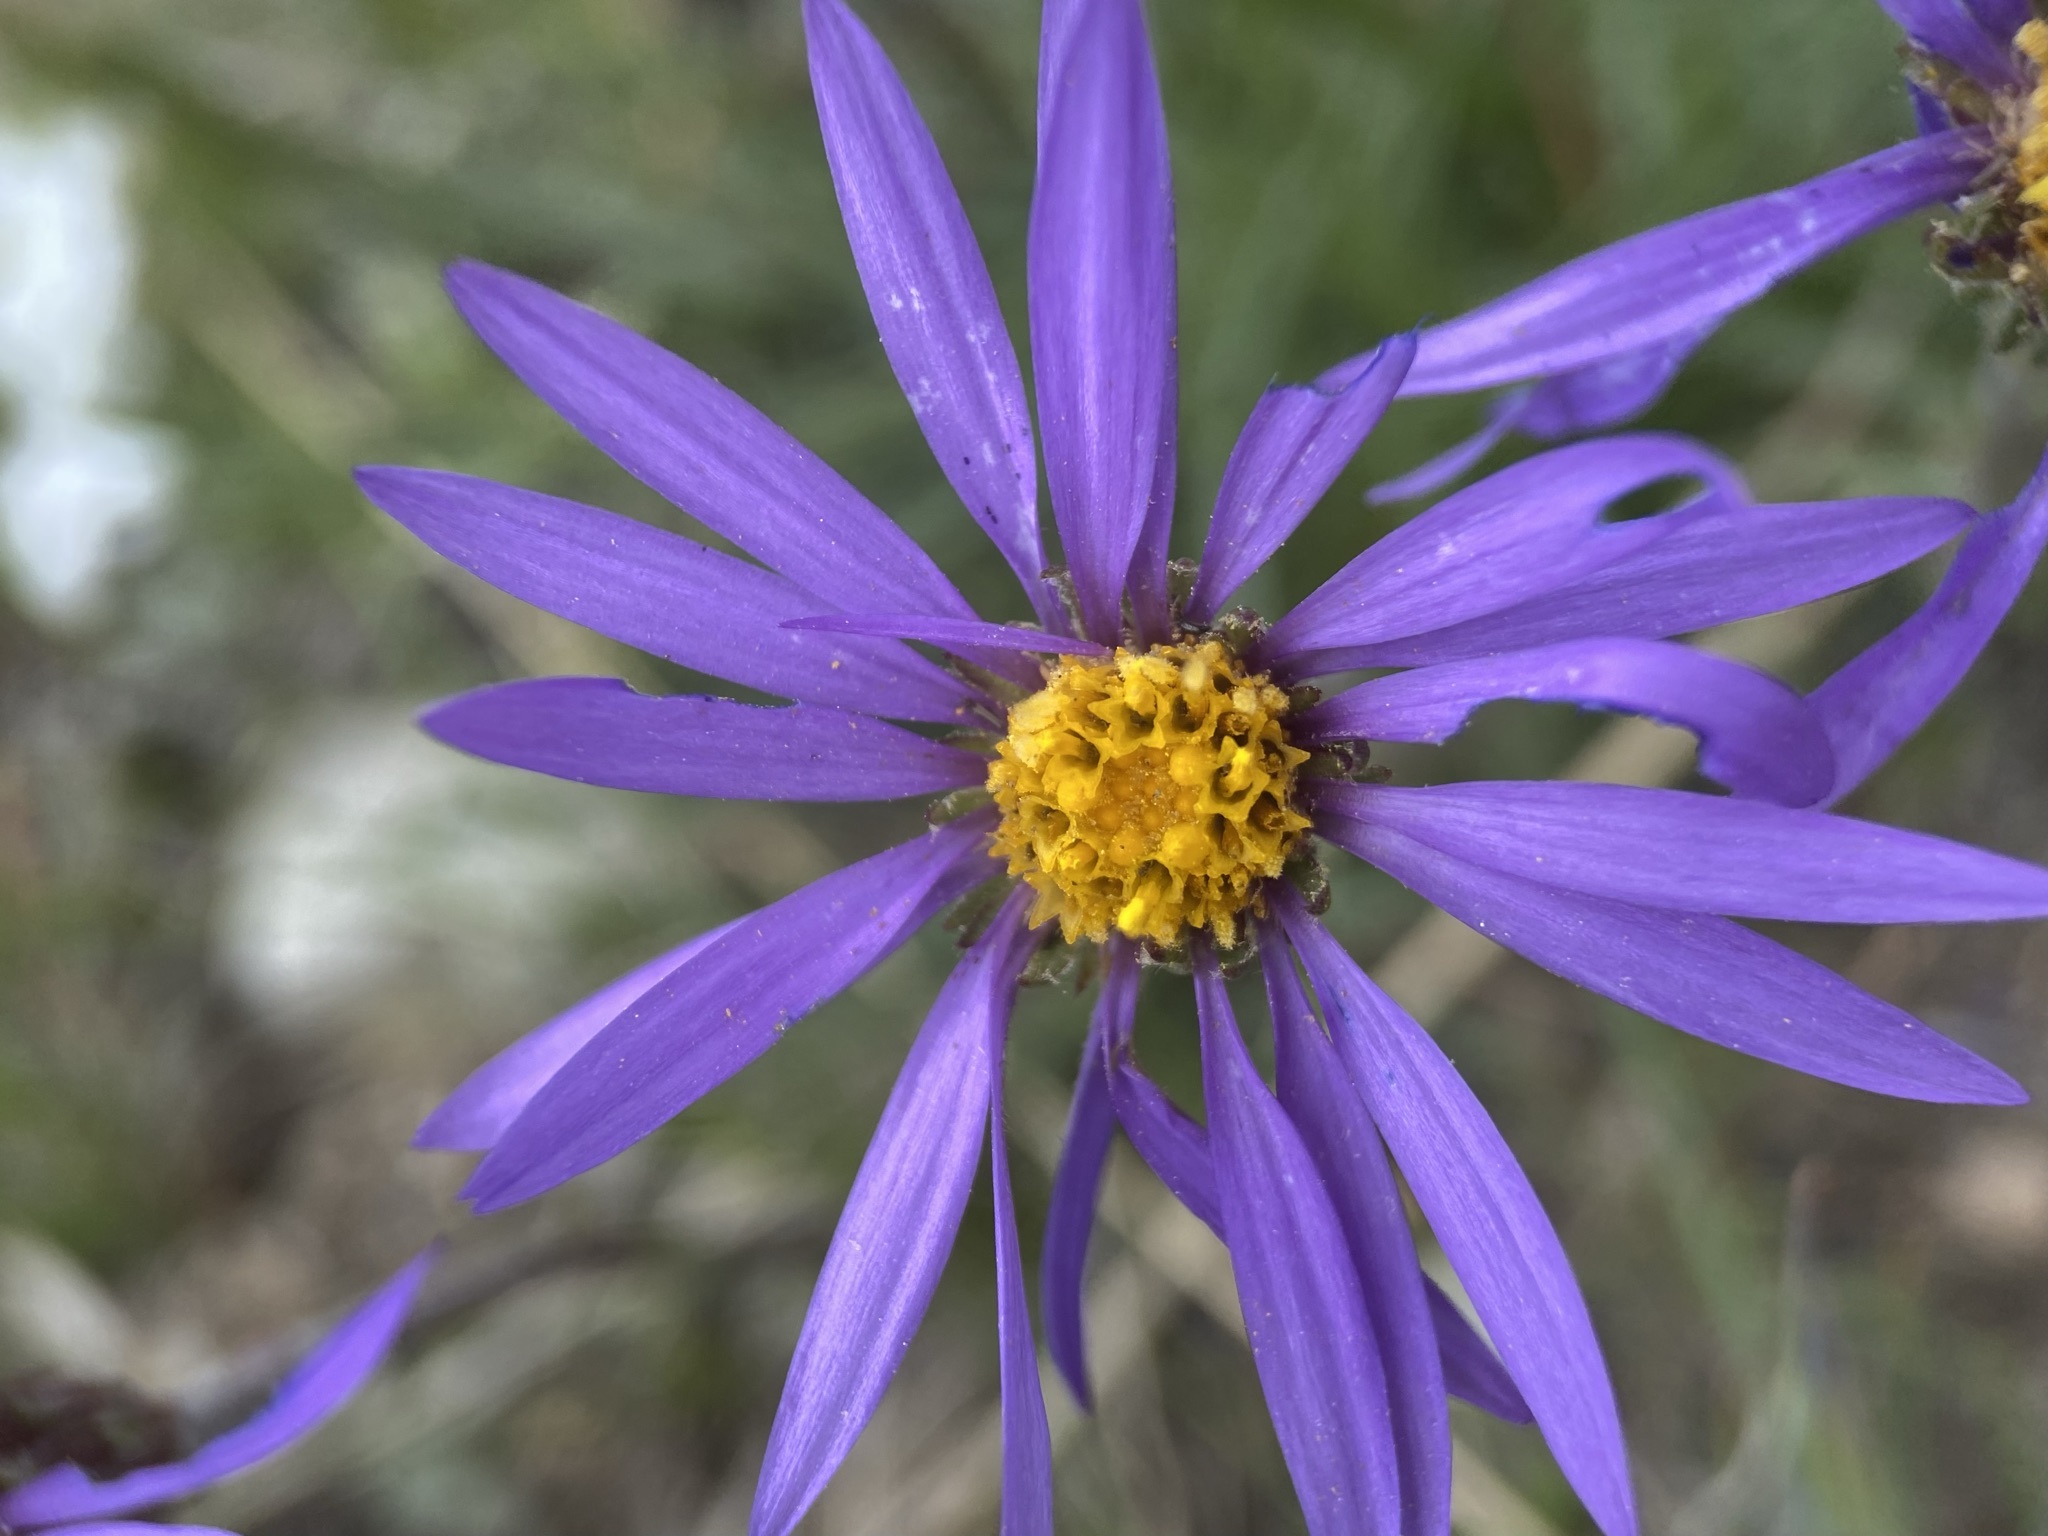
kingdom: Plantae
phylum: Tracheophyta
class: Magnoliopsida
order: Asterales
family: Asteraceae
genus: Oreostemma
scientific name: Oreostemma alpigenum
